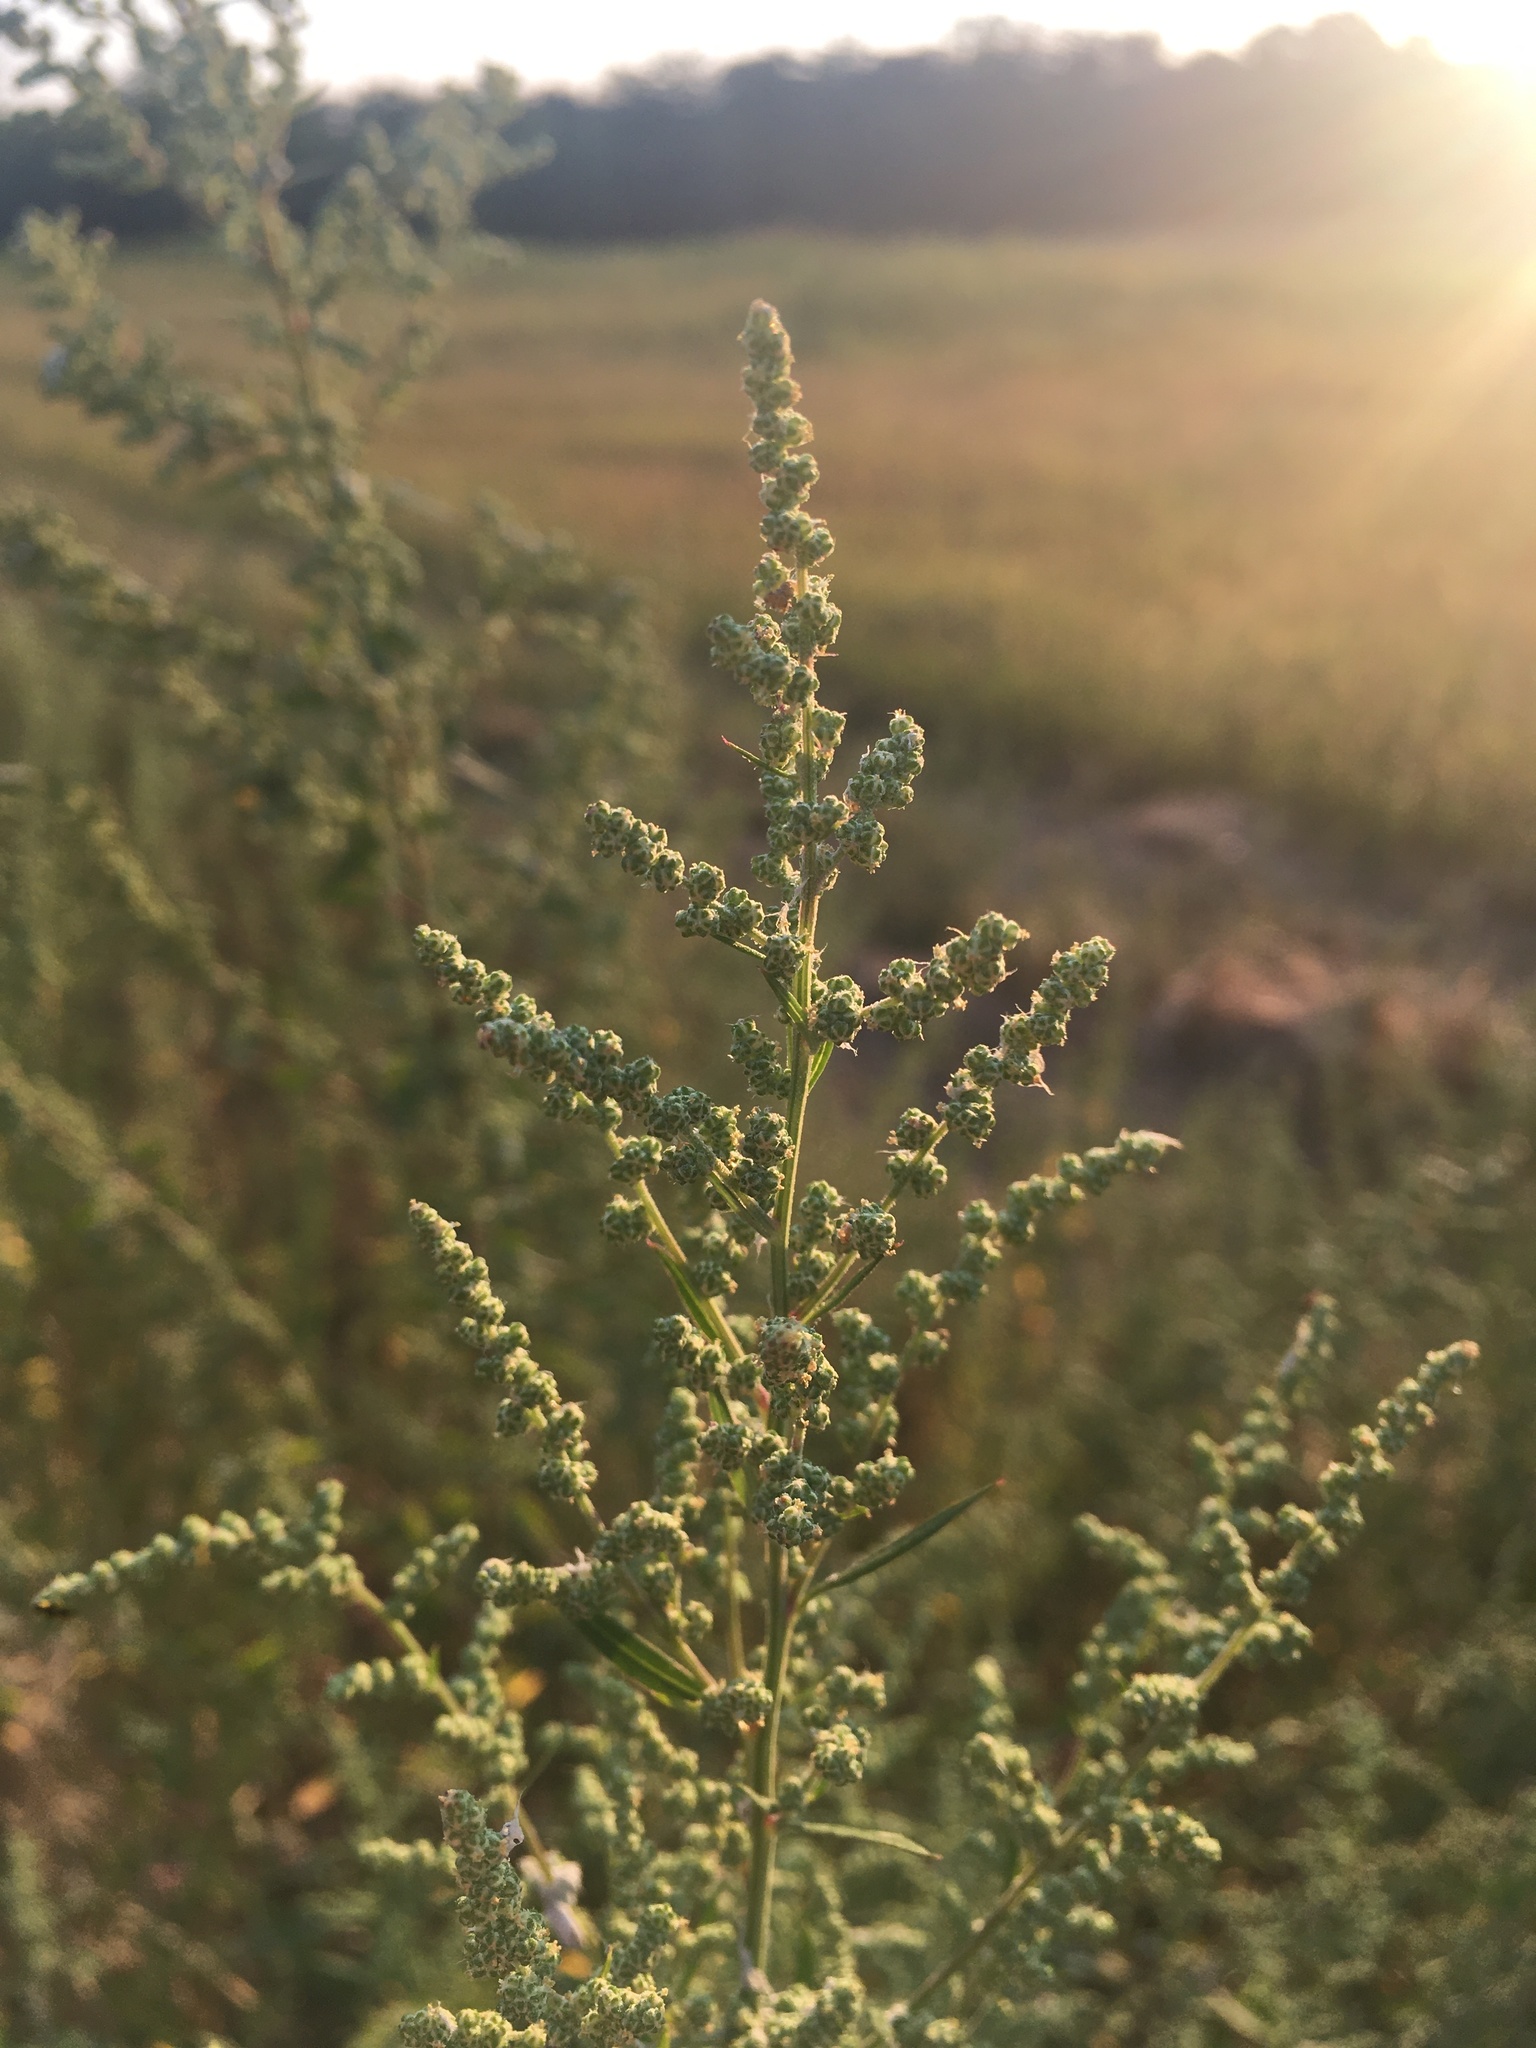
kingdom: Plantae
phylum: Tracheophyta
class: Magnoliopsida
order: Caryophyllales
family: Amaranthaceae
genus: Chenopodium
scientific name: Chenopodium album
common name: Fat-hen
